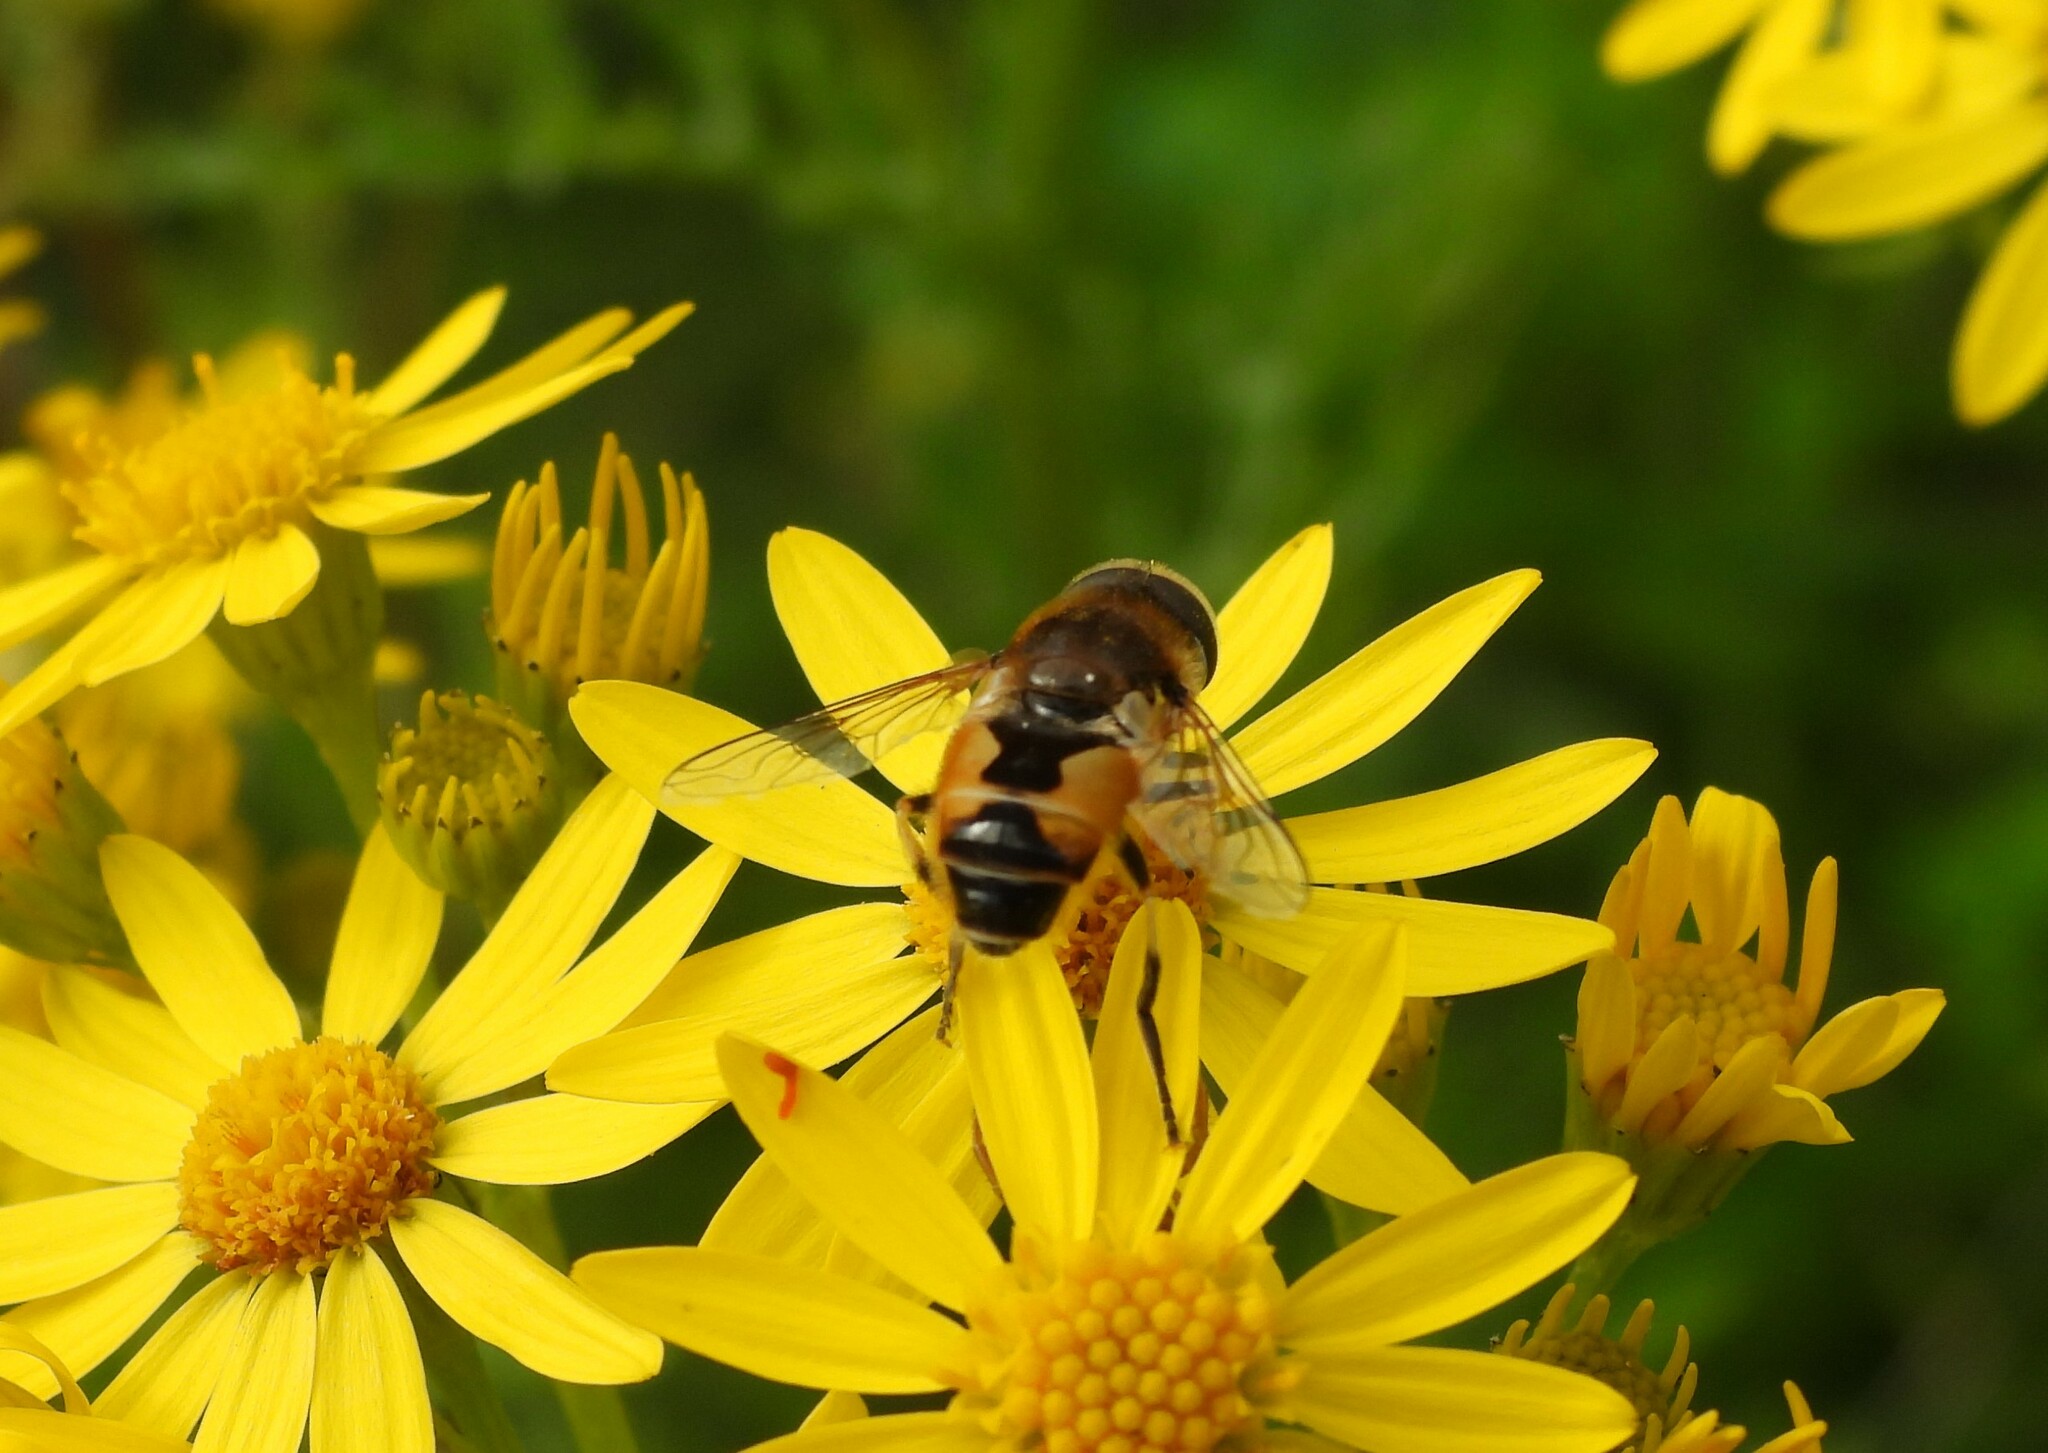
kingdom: Animalia
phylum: Arthropoda
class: Insecta
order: Diptera
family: Syrphidae
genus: Eoseristalis
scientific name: Eoseristalis
